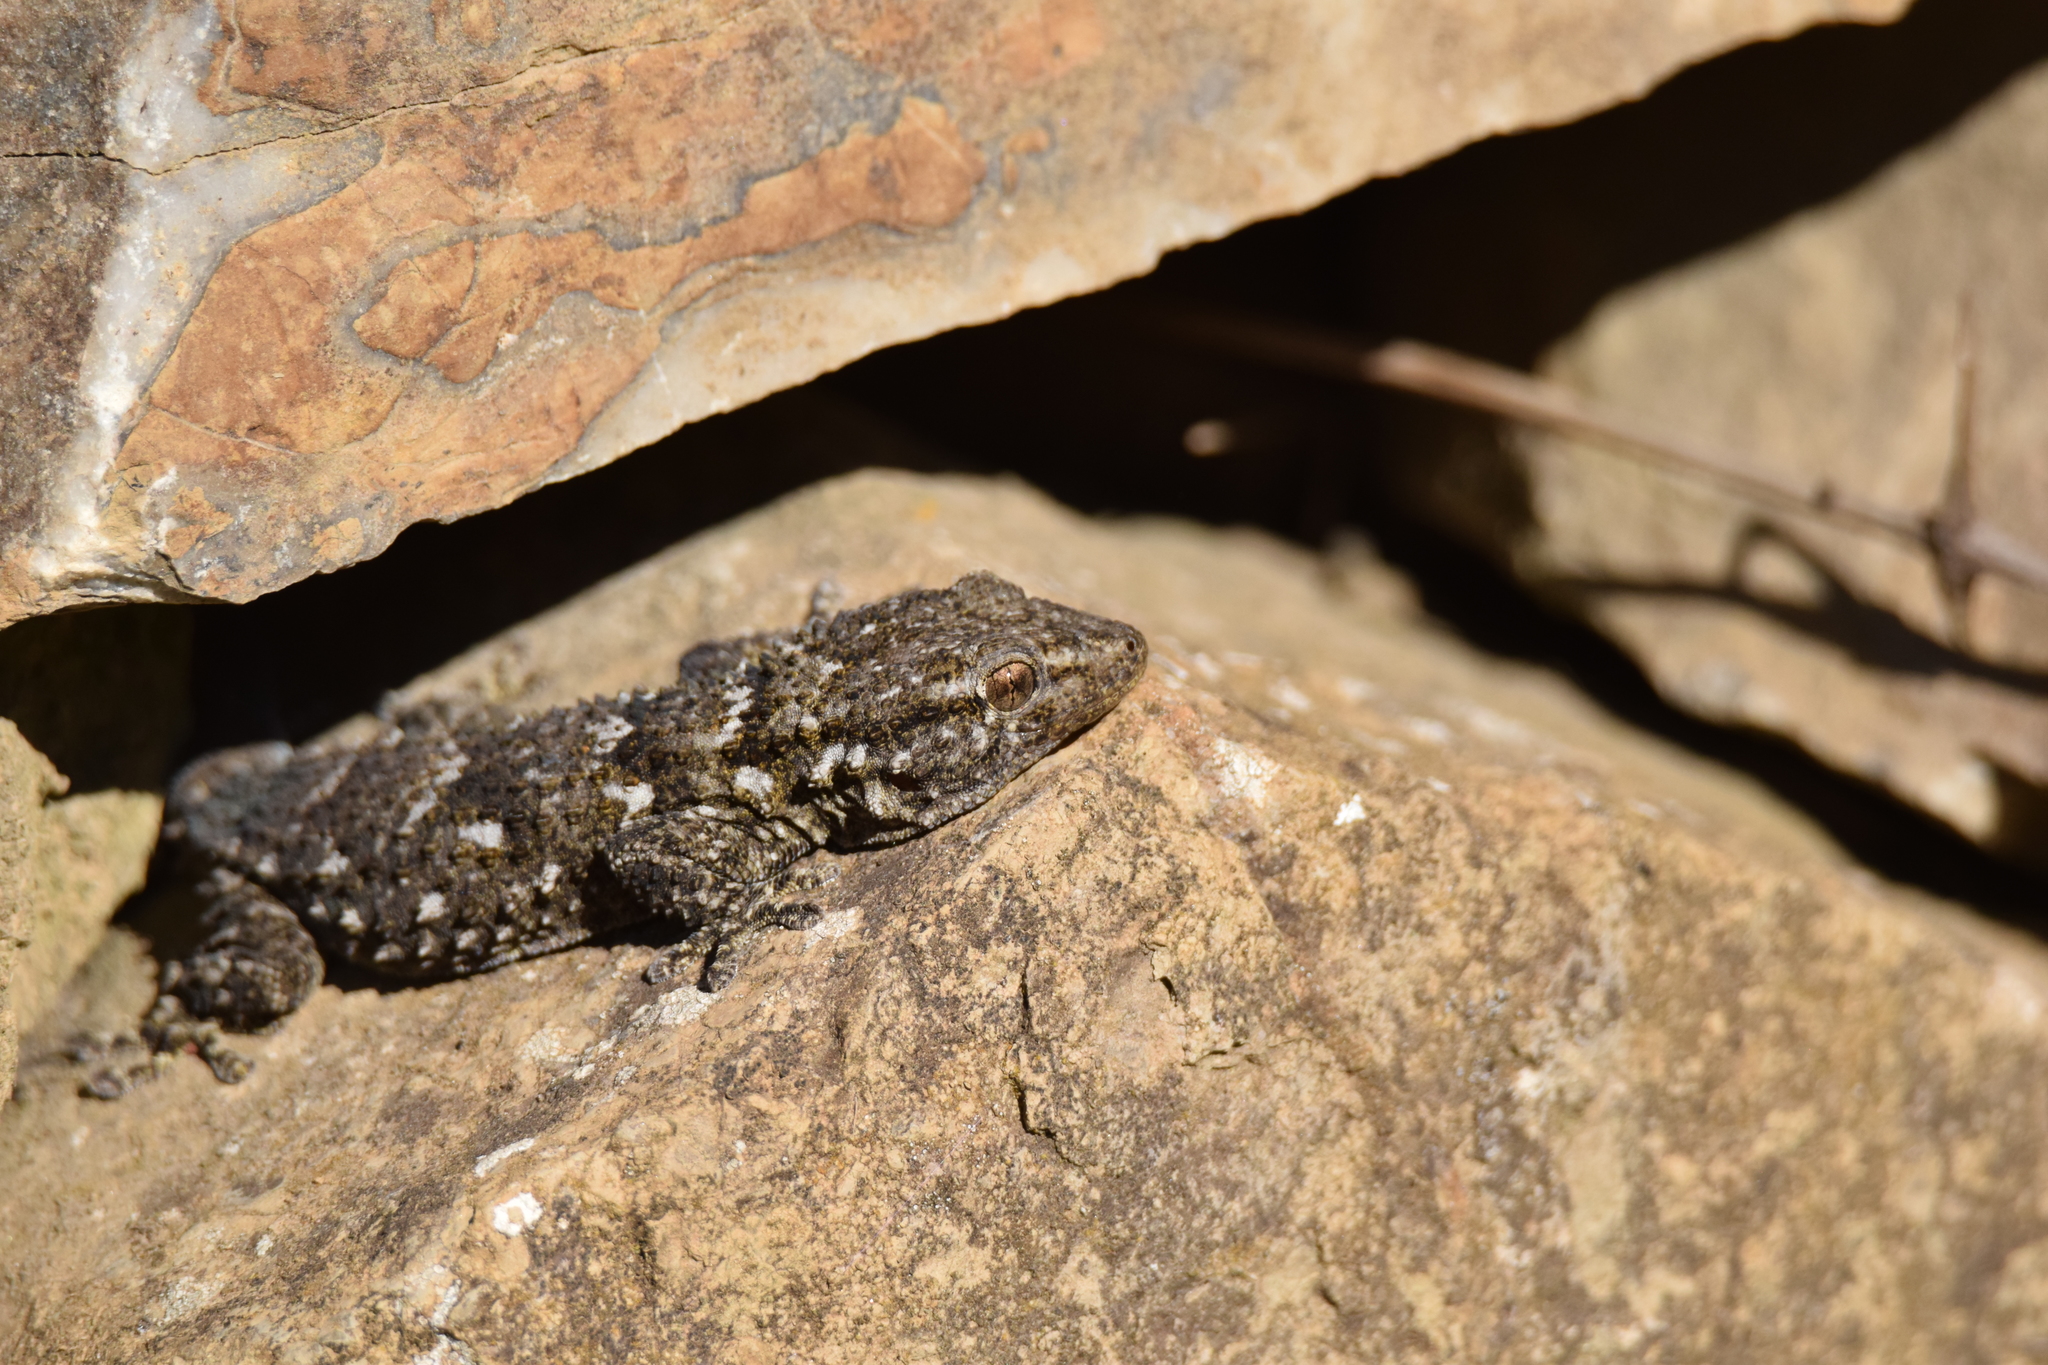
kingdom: Animalia
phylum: Chordata
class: Squamata
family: Phyllodactylidae
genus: Tarentola
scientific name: Tarentola mauritanica
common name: Moorish gecko
